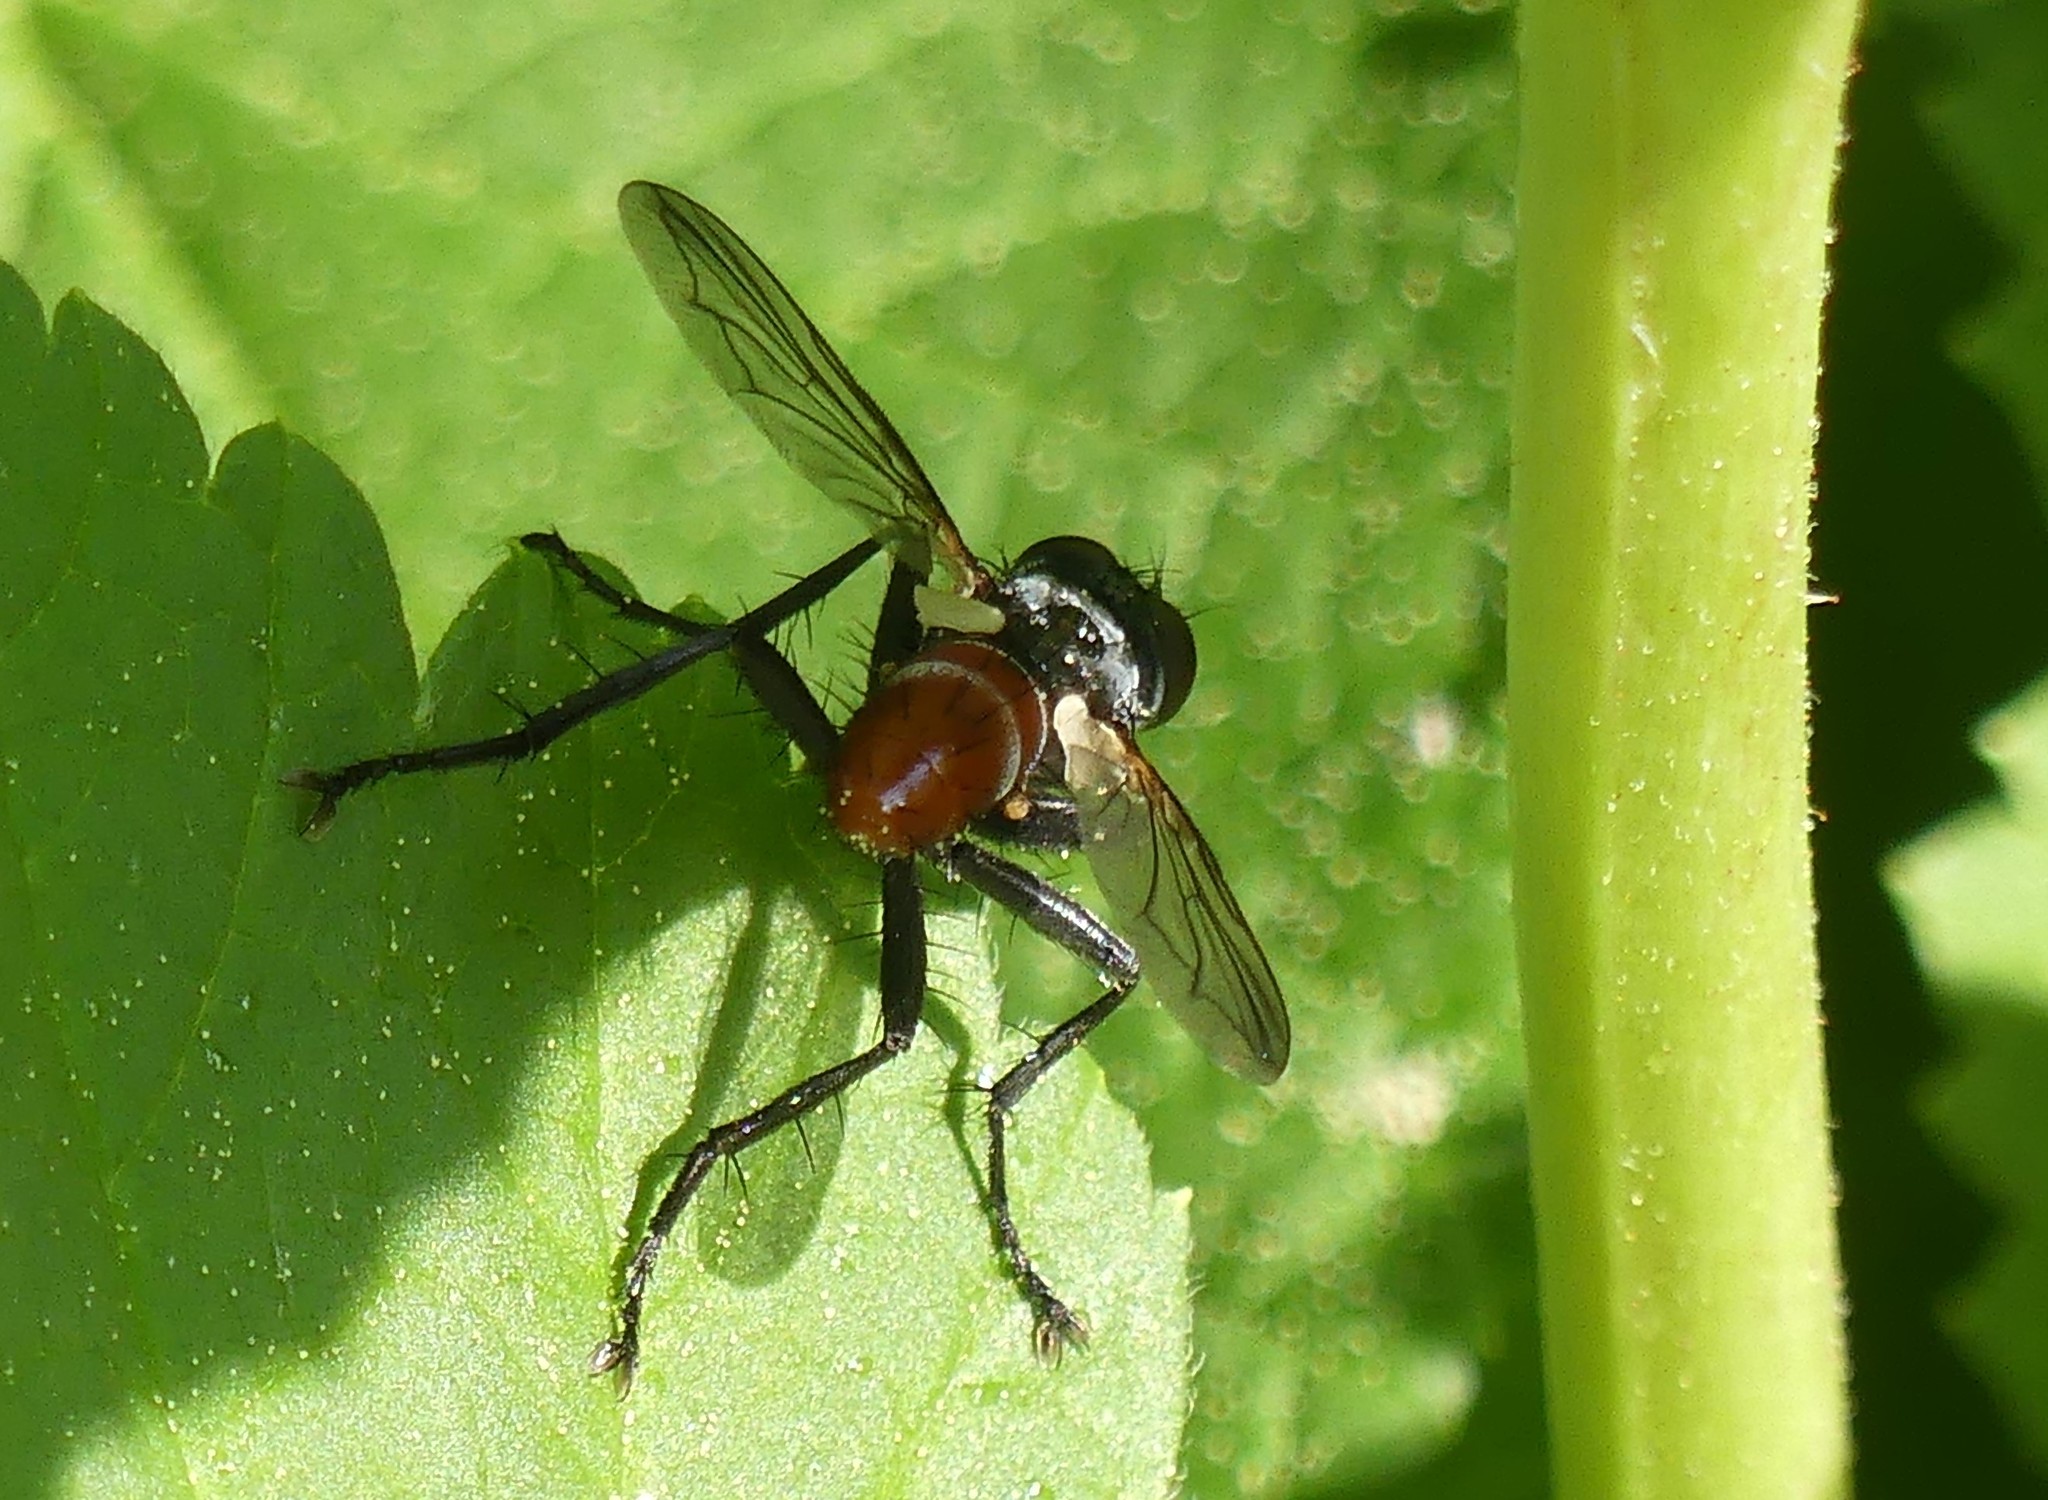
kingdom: Animalia
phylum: Arthropoda
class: Insecta
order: Diptera
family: Tachinidae
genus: Cylindromyia
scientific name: Cylindromyia bicolor
